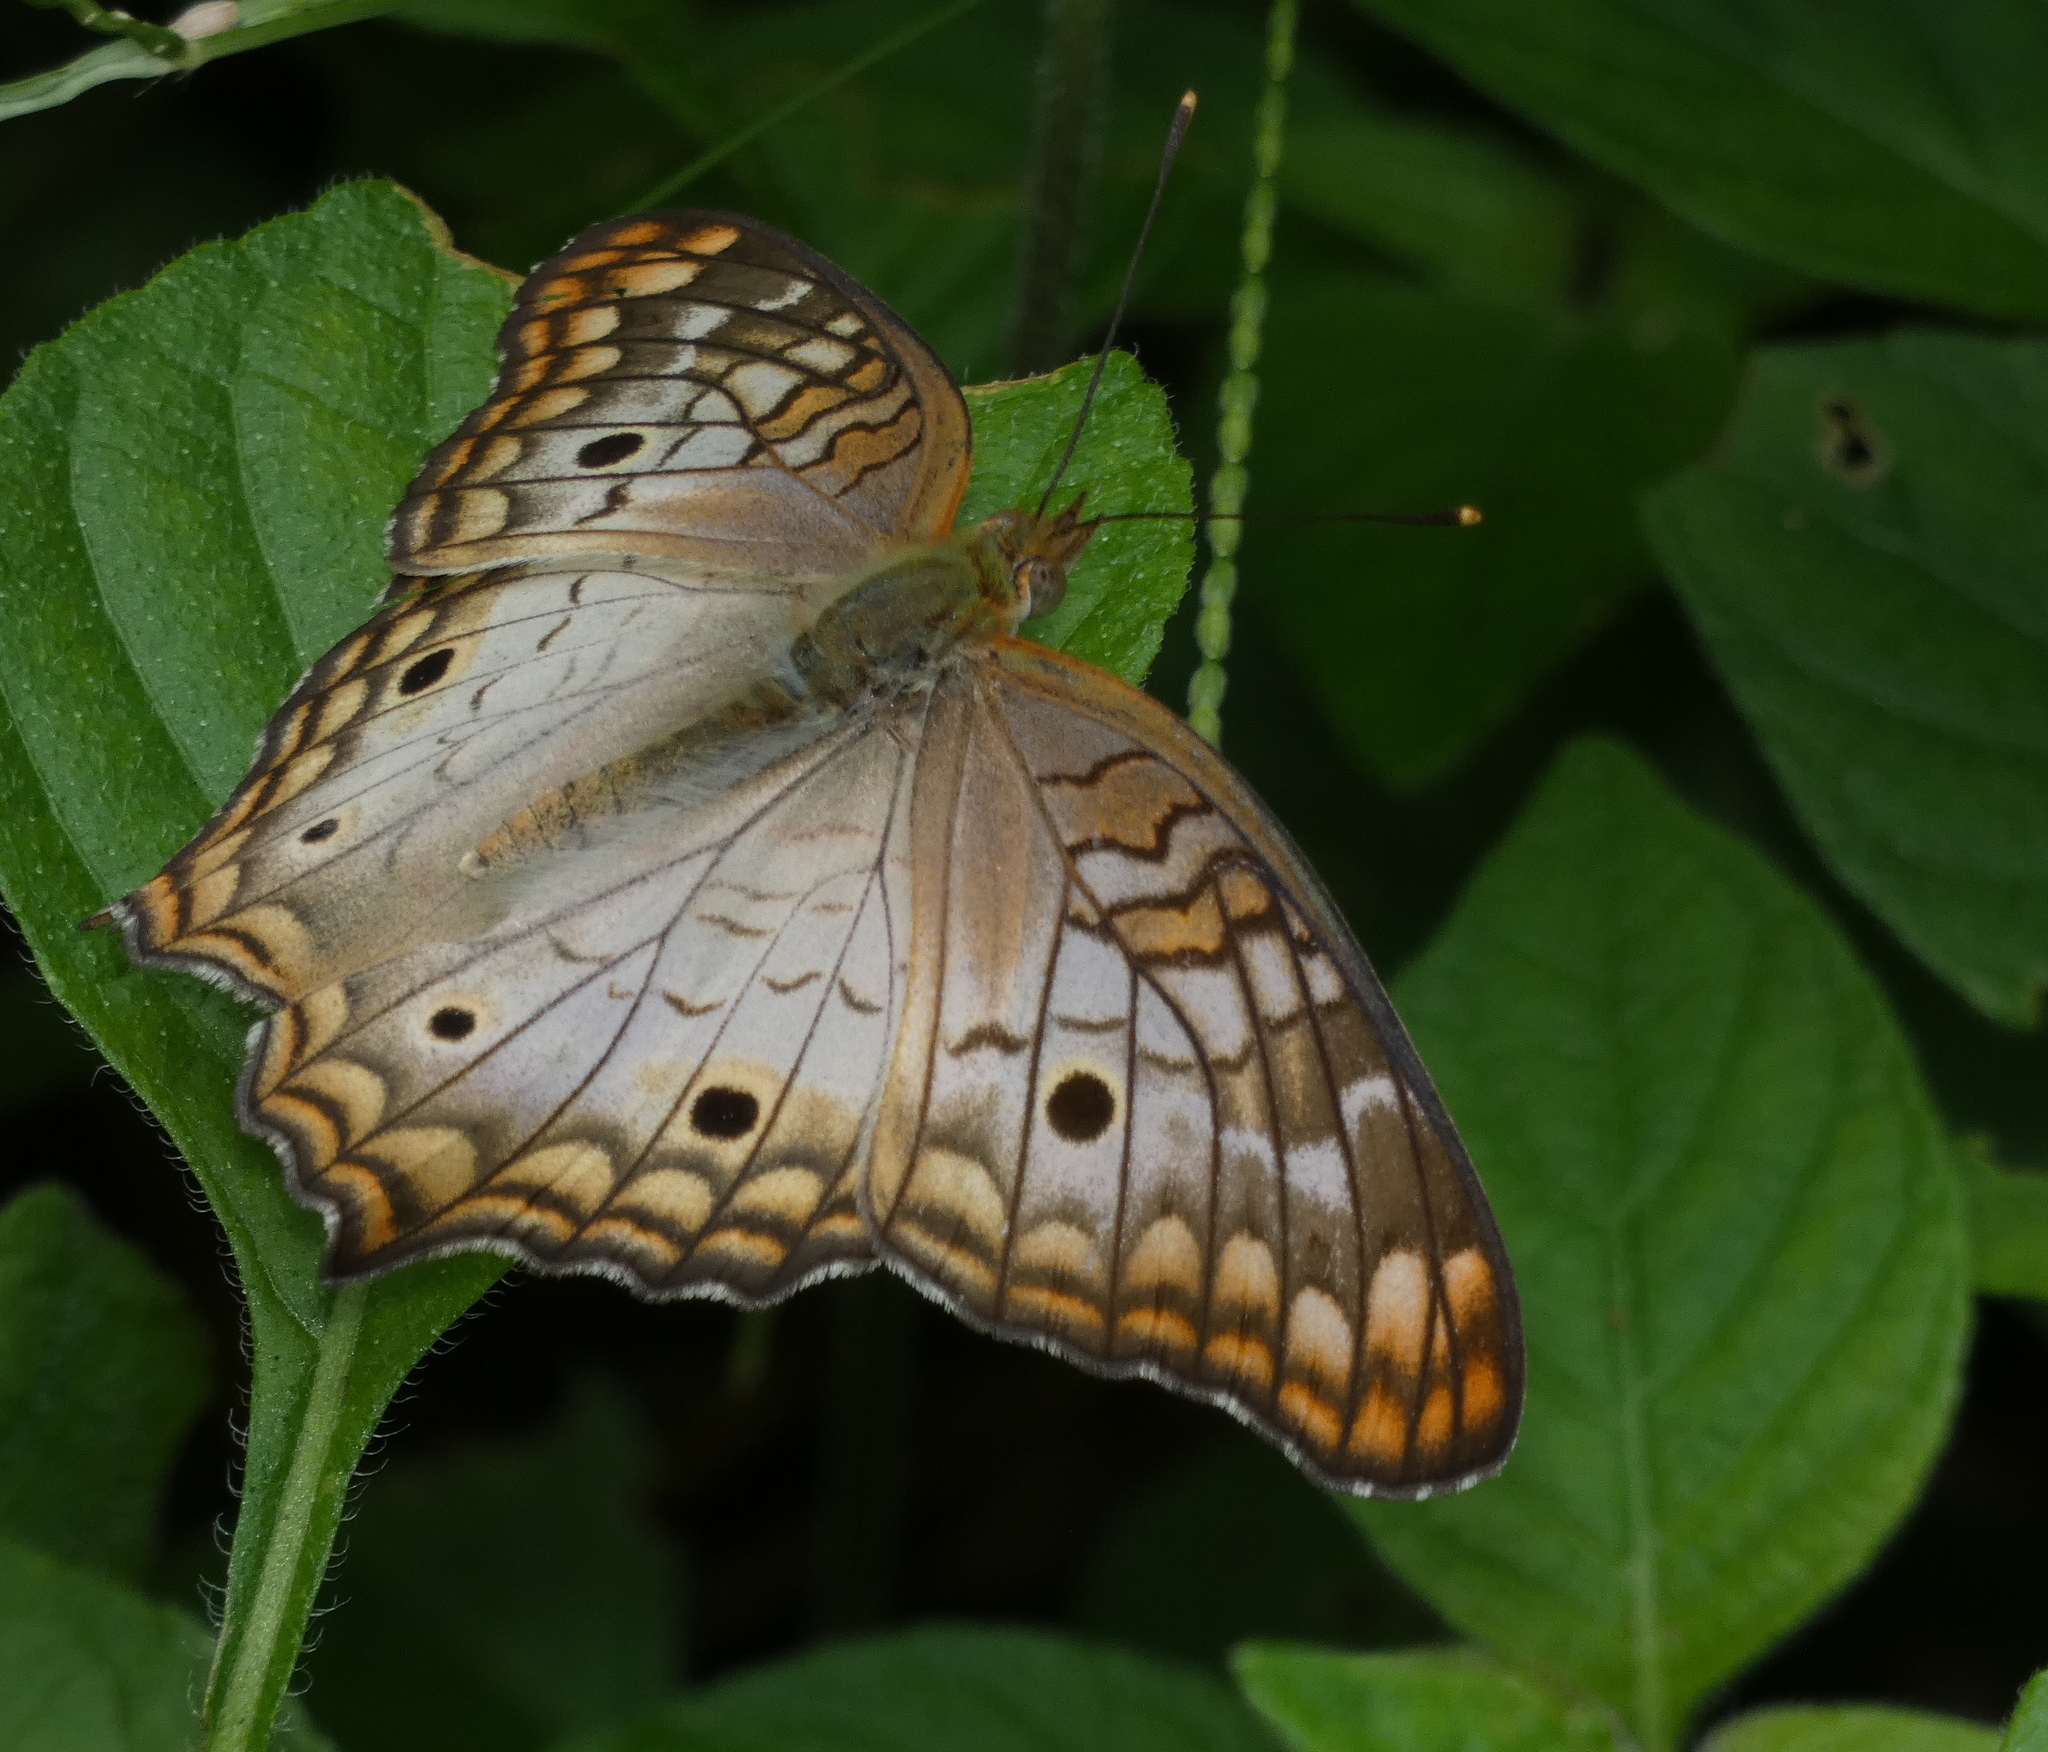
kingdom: Animalia
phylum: Arthropoda
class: Insecta
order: Lepidoptera
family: Nymphalidae
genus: Anartia
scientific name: Anartia jatrophae
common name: White peacock
